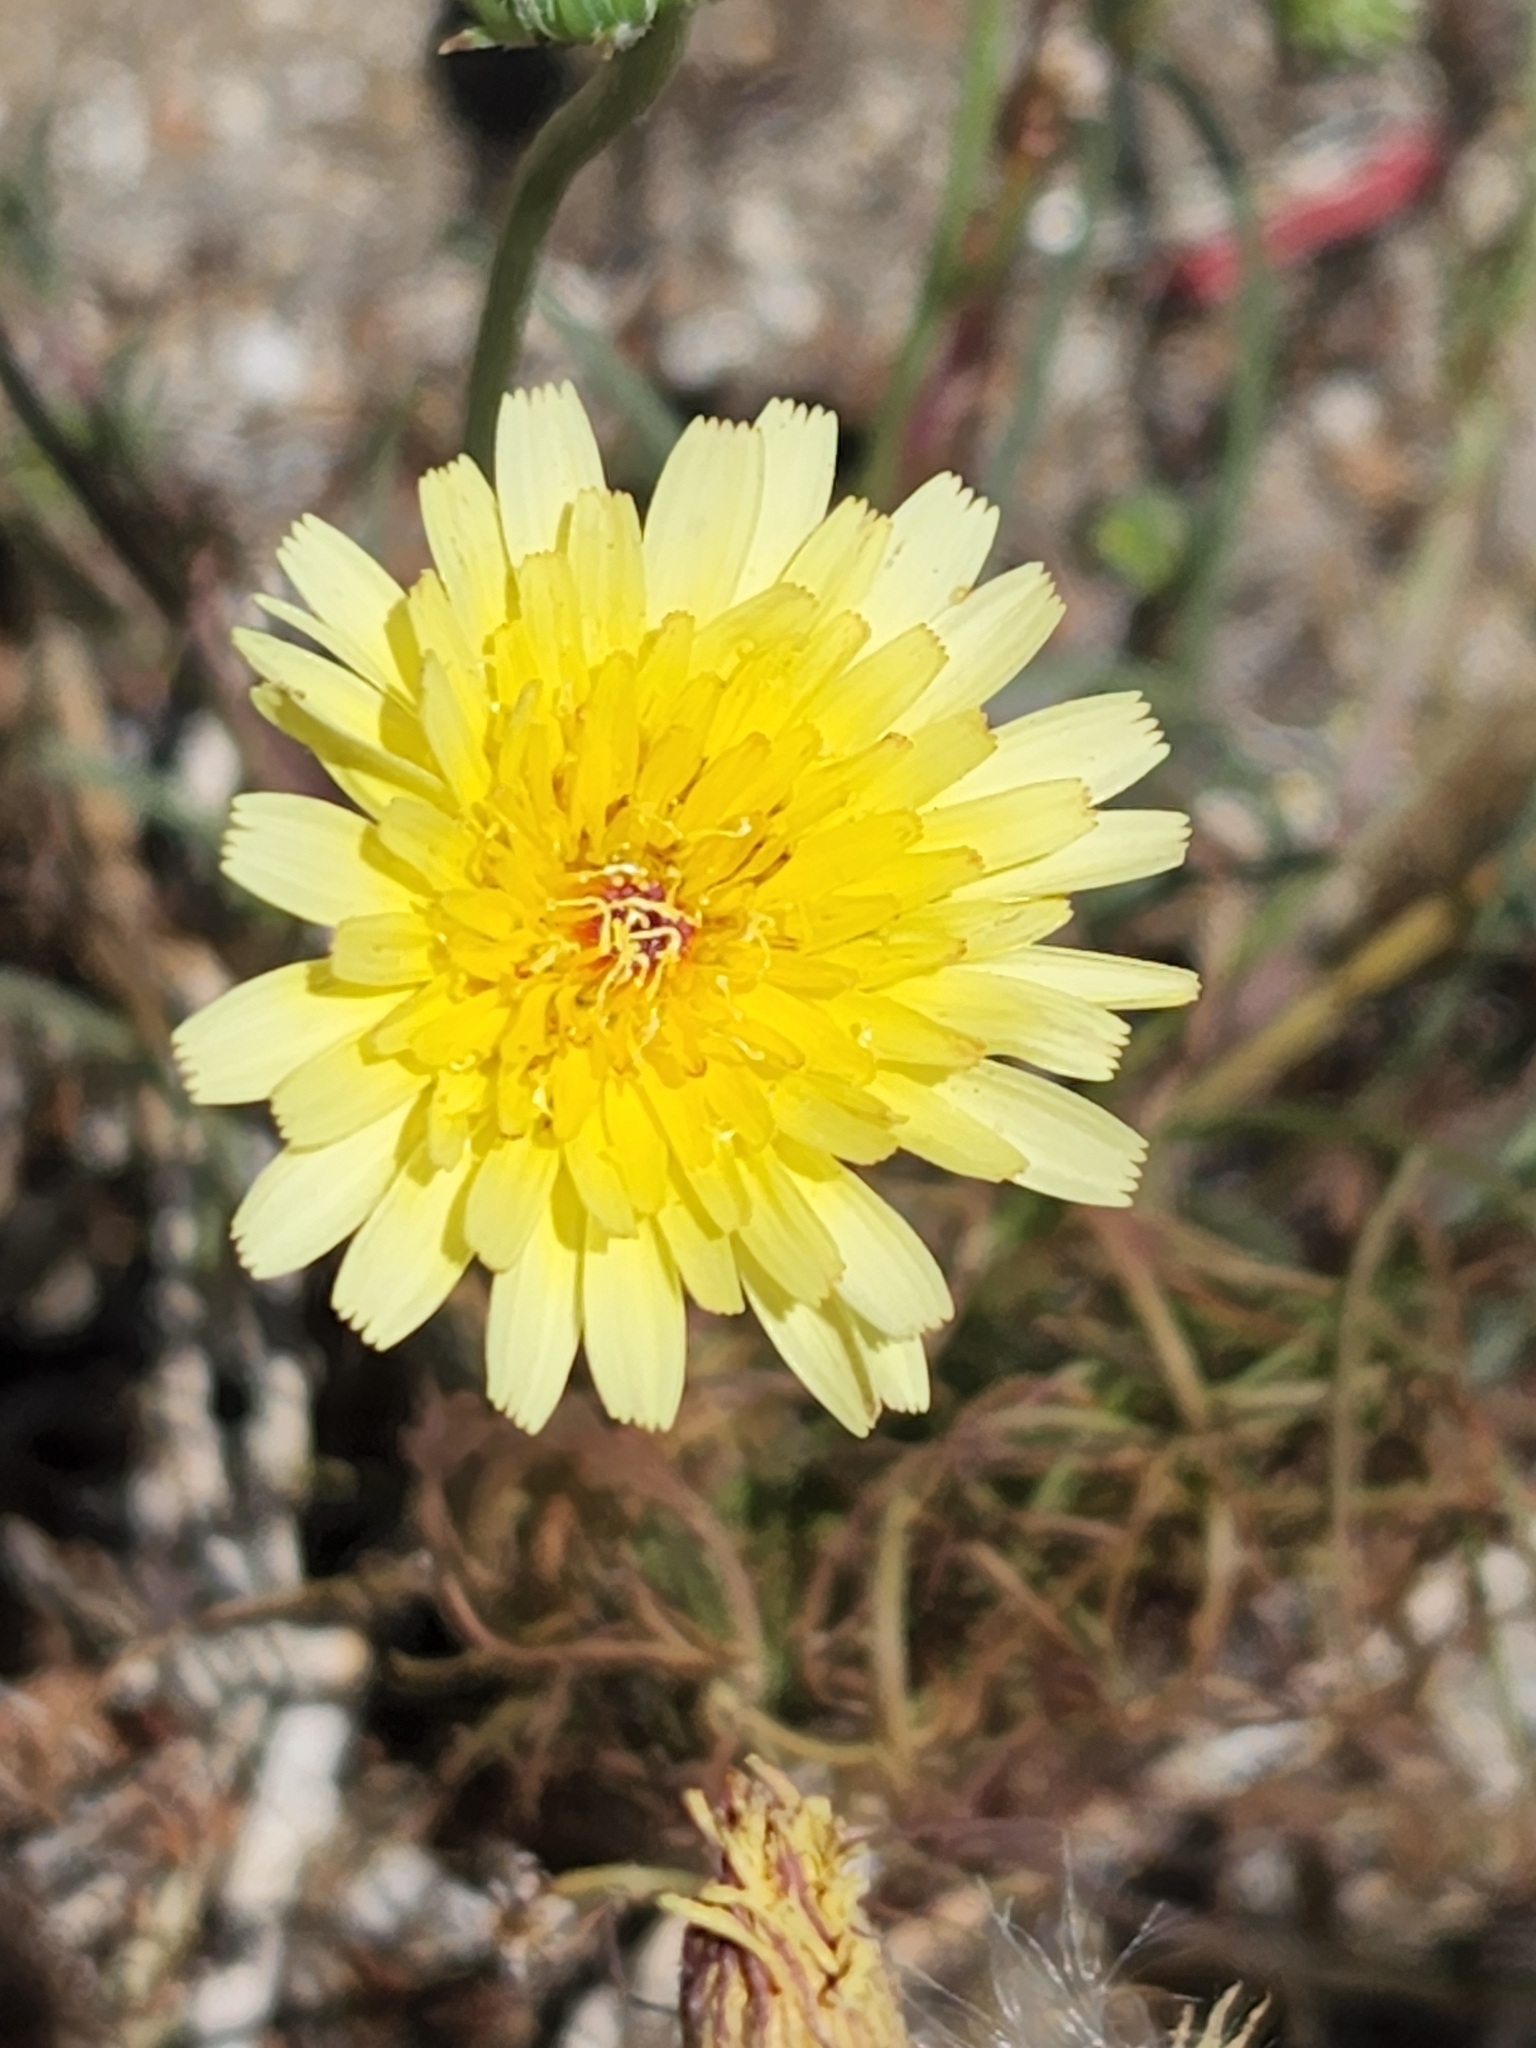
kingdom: Plantae
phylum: Tracheophyta
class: Magnoliopsida
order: Asterales
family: Asteraceae
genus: Malacothrix
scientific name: Malacothrix glabrata
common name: Smooth desert-dandelion
